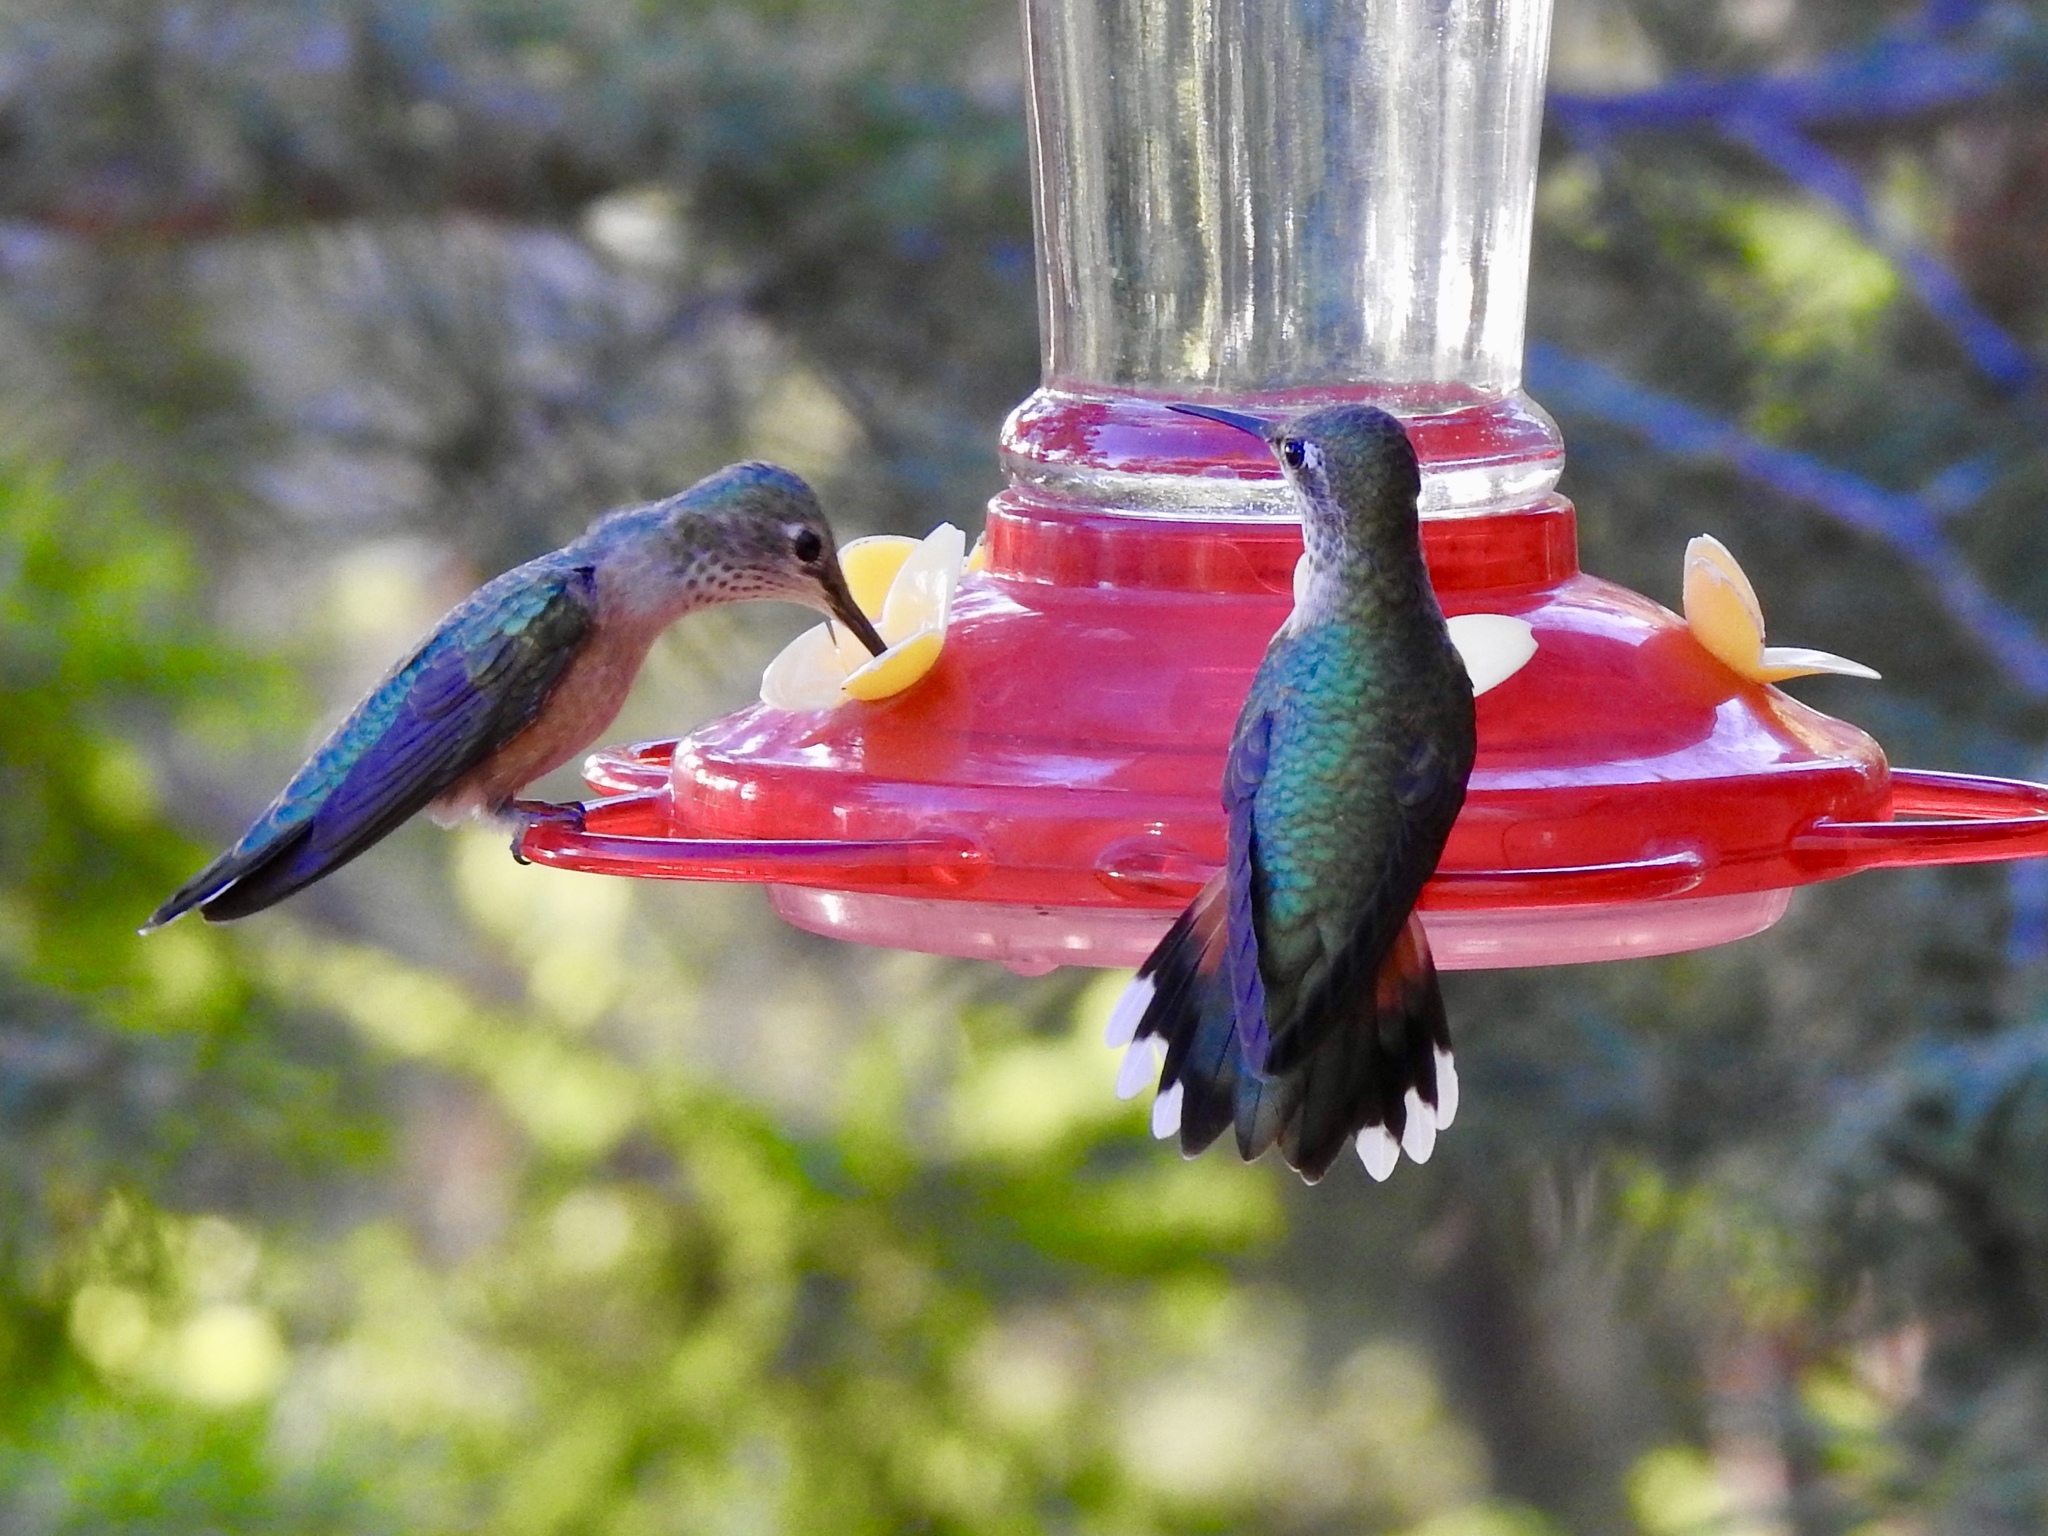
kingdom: Animalia
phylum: Chordata
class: Aves
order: Apodiformes
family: Trochilidae
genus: Selasphorus
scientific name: Selasphorus platycercus
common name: Broad-tailed hummingbird
